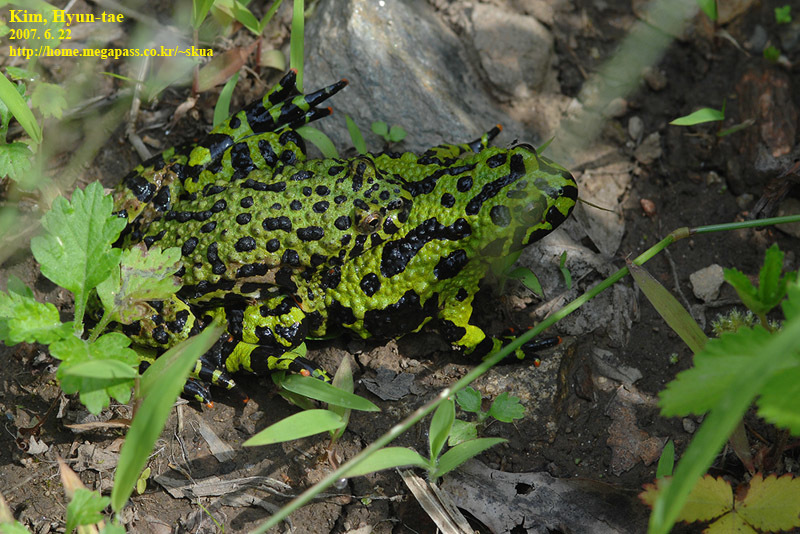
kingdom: Animalia
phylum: Chordata
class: Amphibia
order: Anura
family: Bombinatoridae
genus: Bombina
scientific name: Bombina orientalis
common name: Oriental firebelly toad
